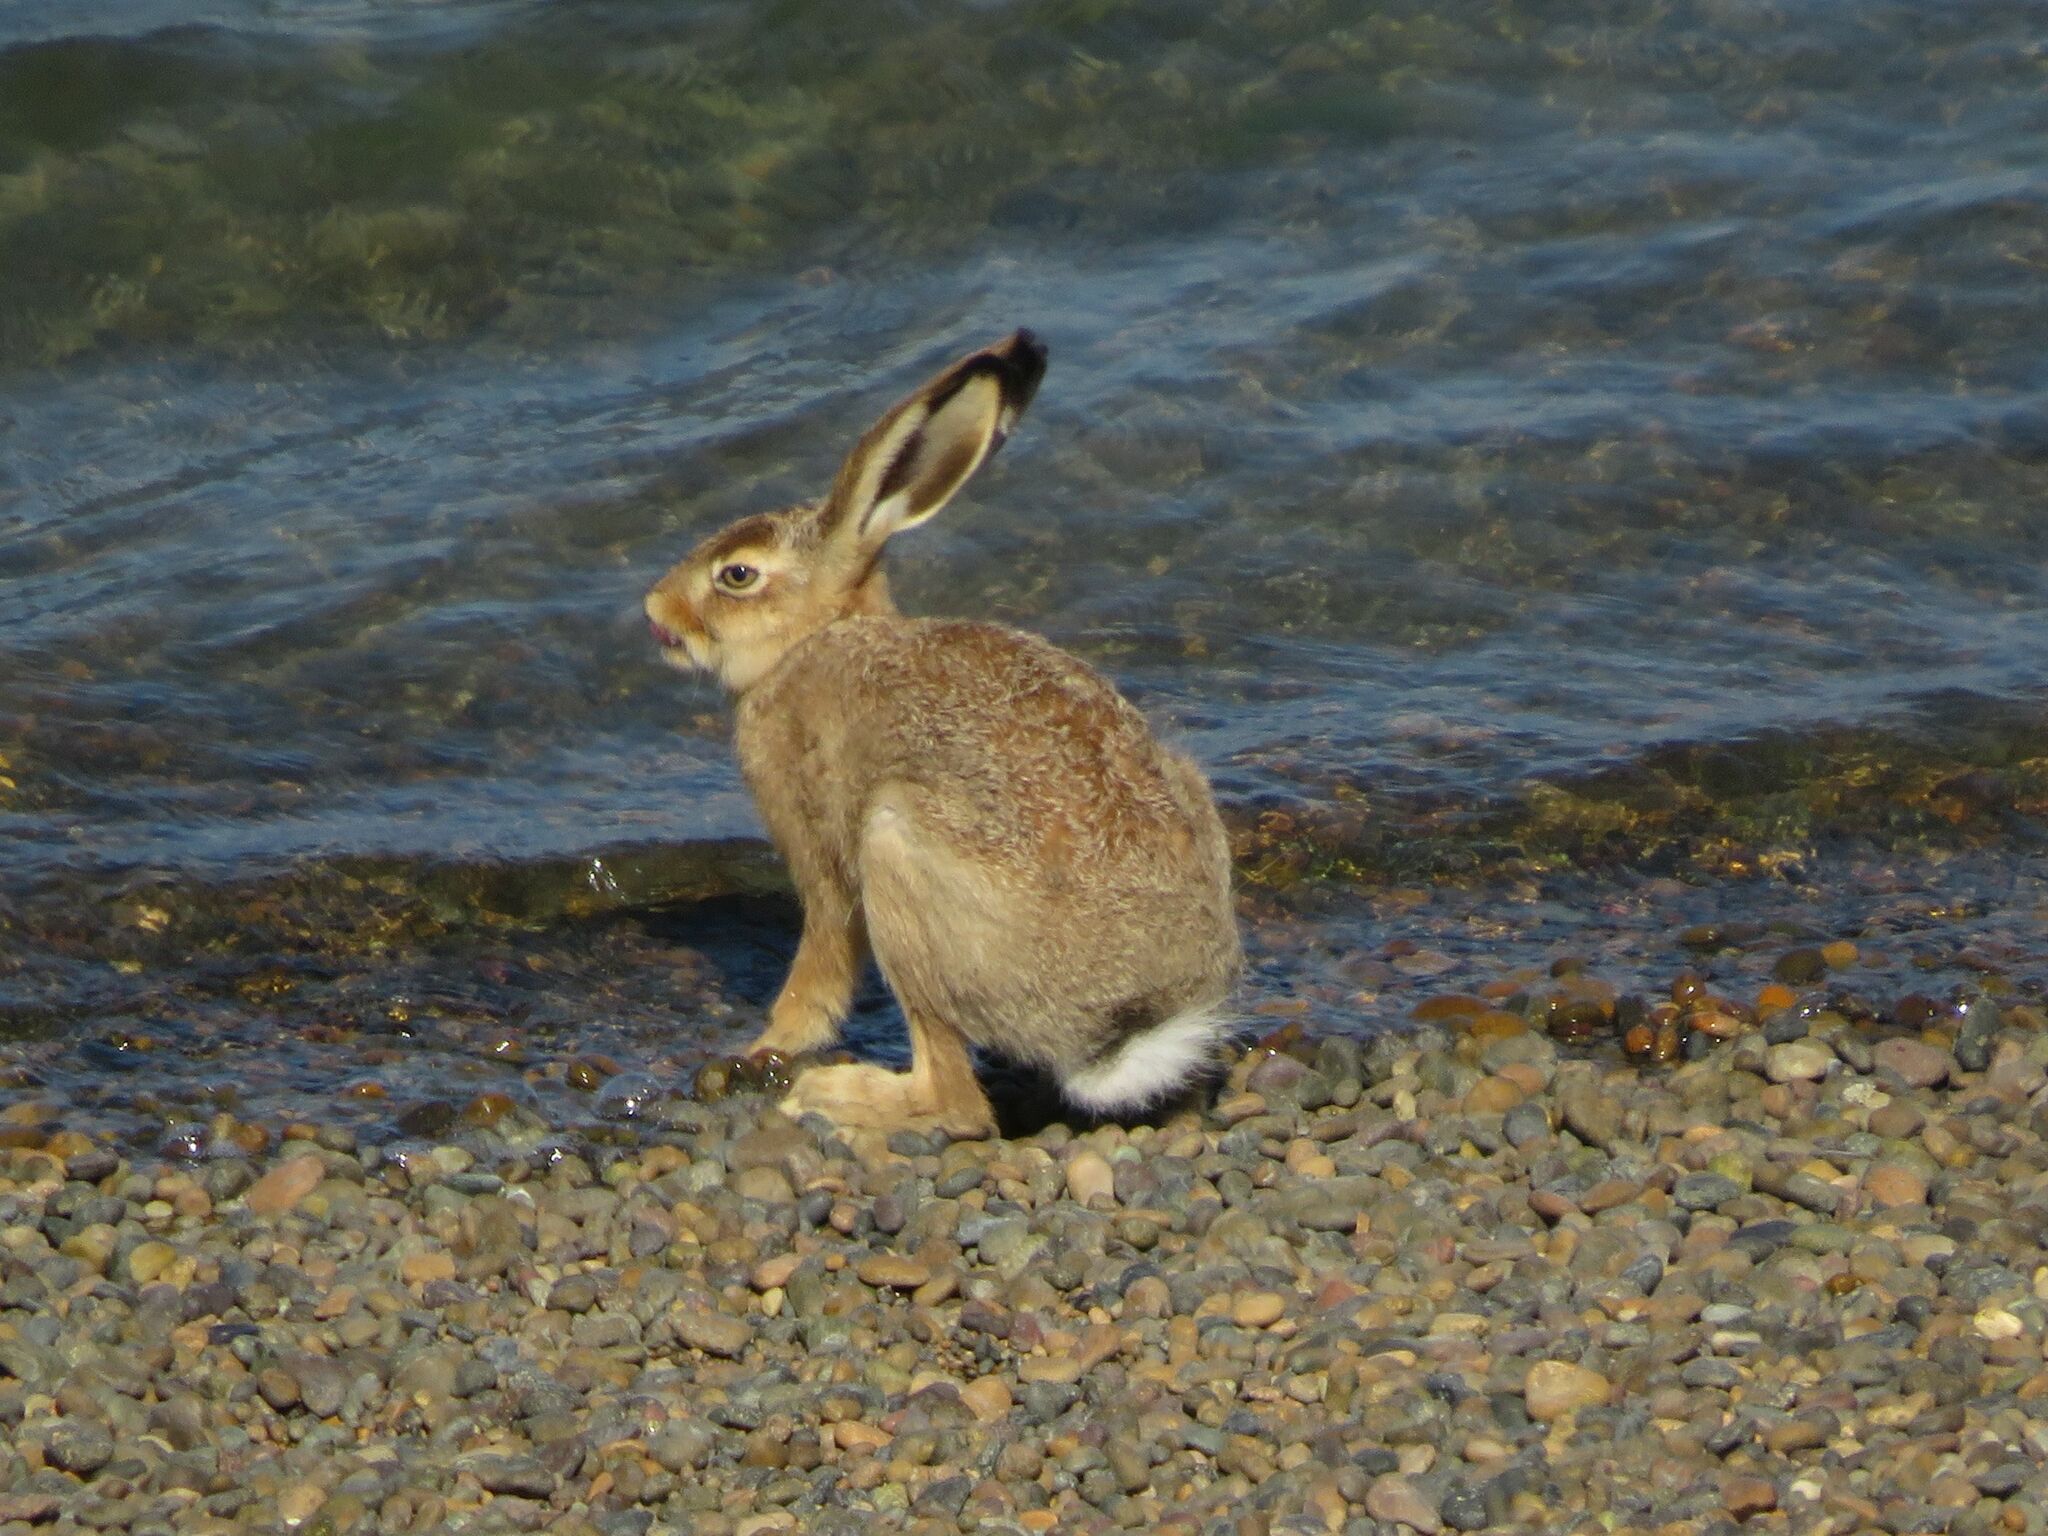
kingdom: Animalia
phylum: Chordata
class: Mammalia
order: Lagomorpha
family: Leporidae
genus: Lepus
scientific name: Lepus europaeus
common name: European hare
